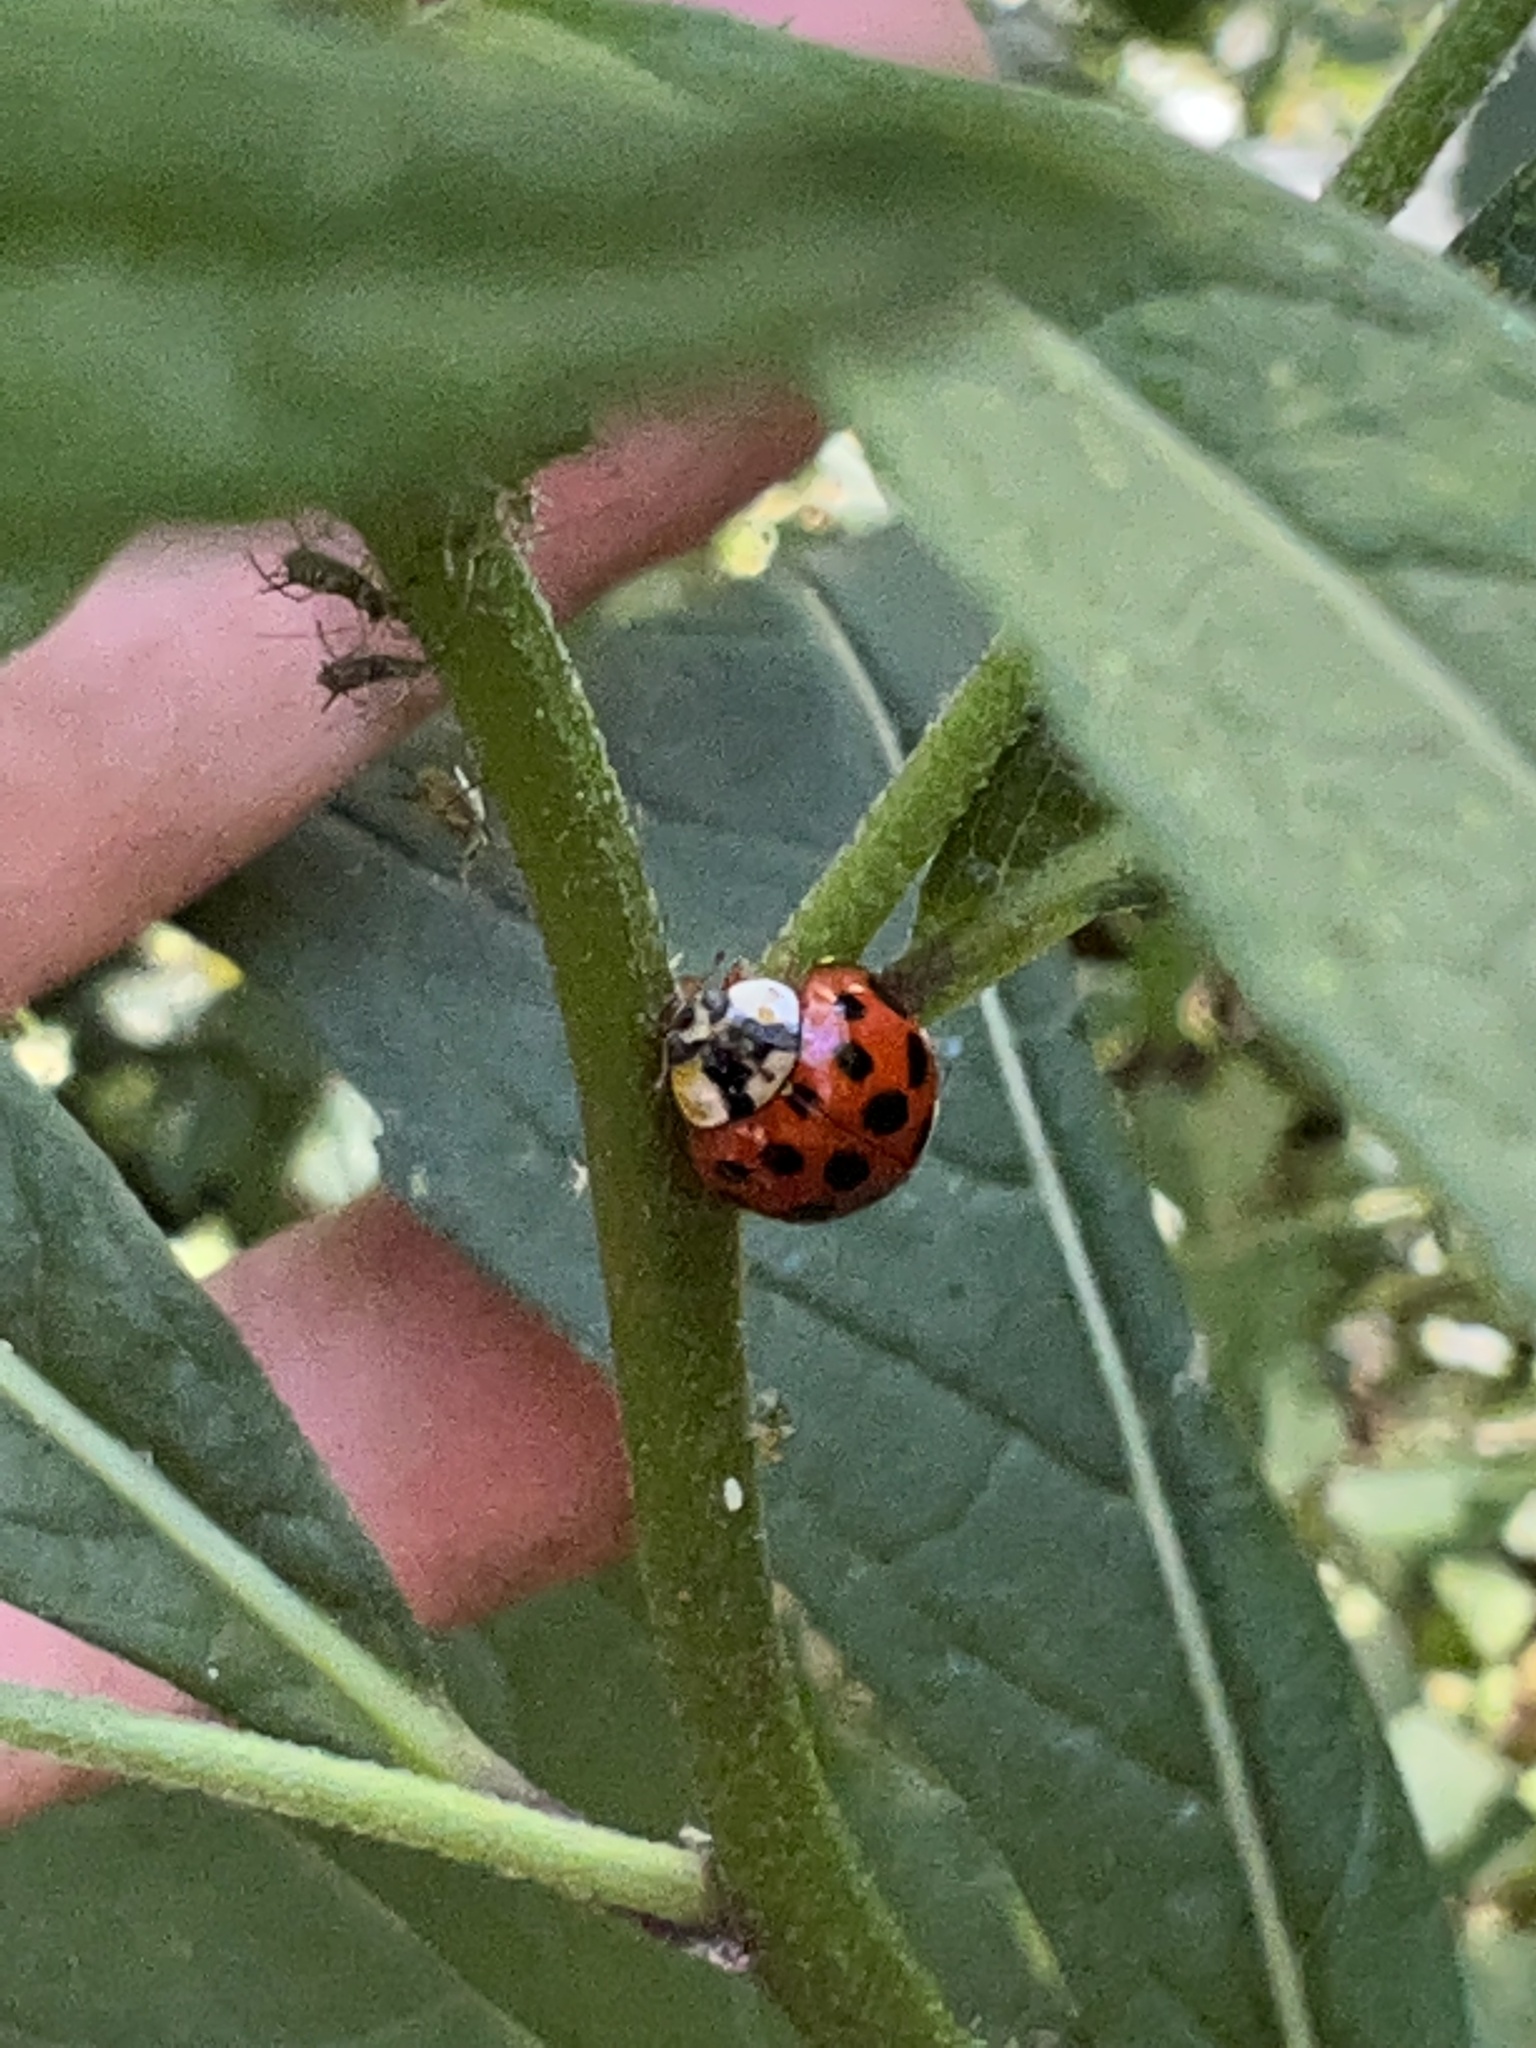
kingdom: Animalia
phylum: Arthropoda
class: Insecta
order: Coleoptera
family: Coccinellidae
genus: Harmonia
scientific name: Harmonia axyridis
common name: Harlequin ladybird
